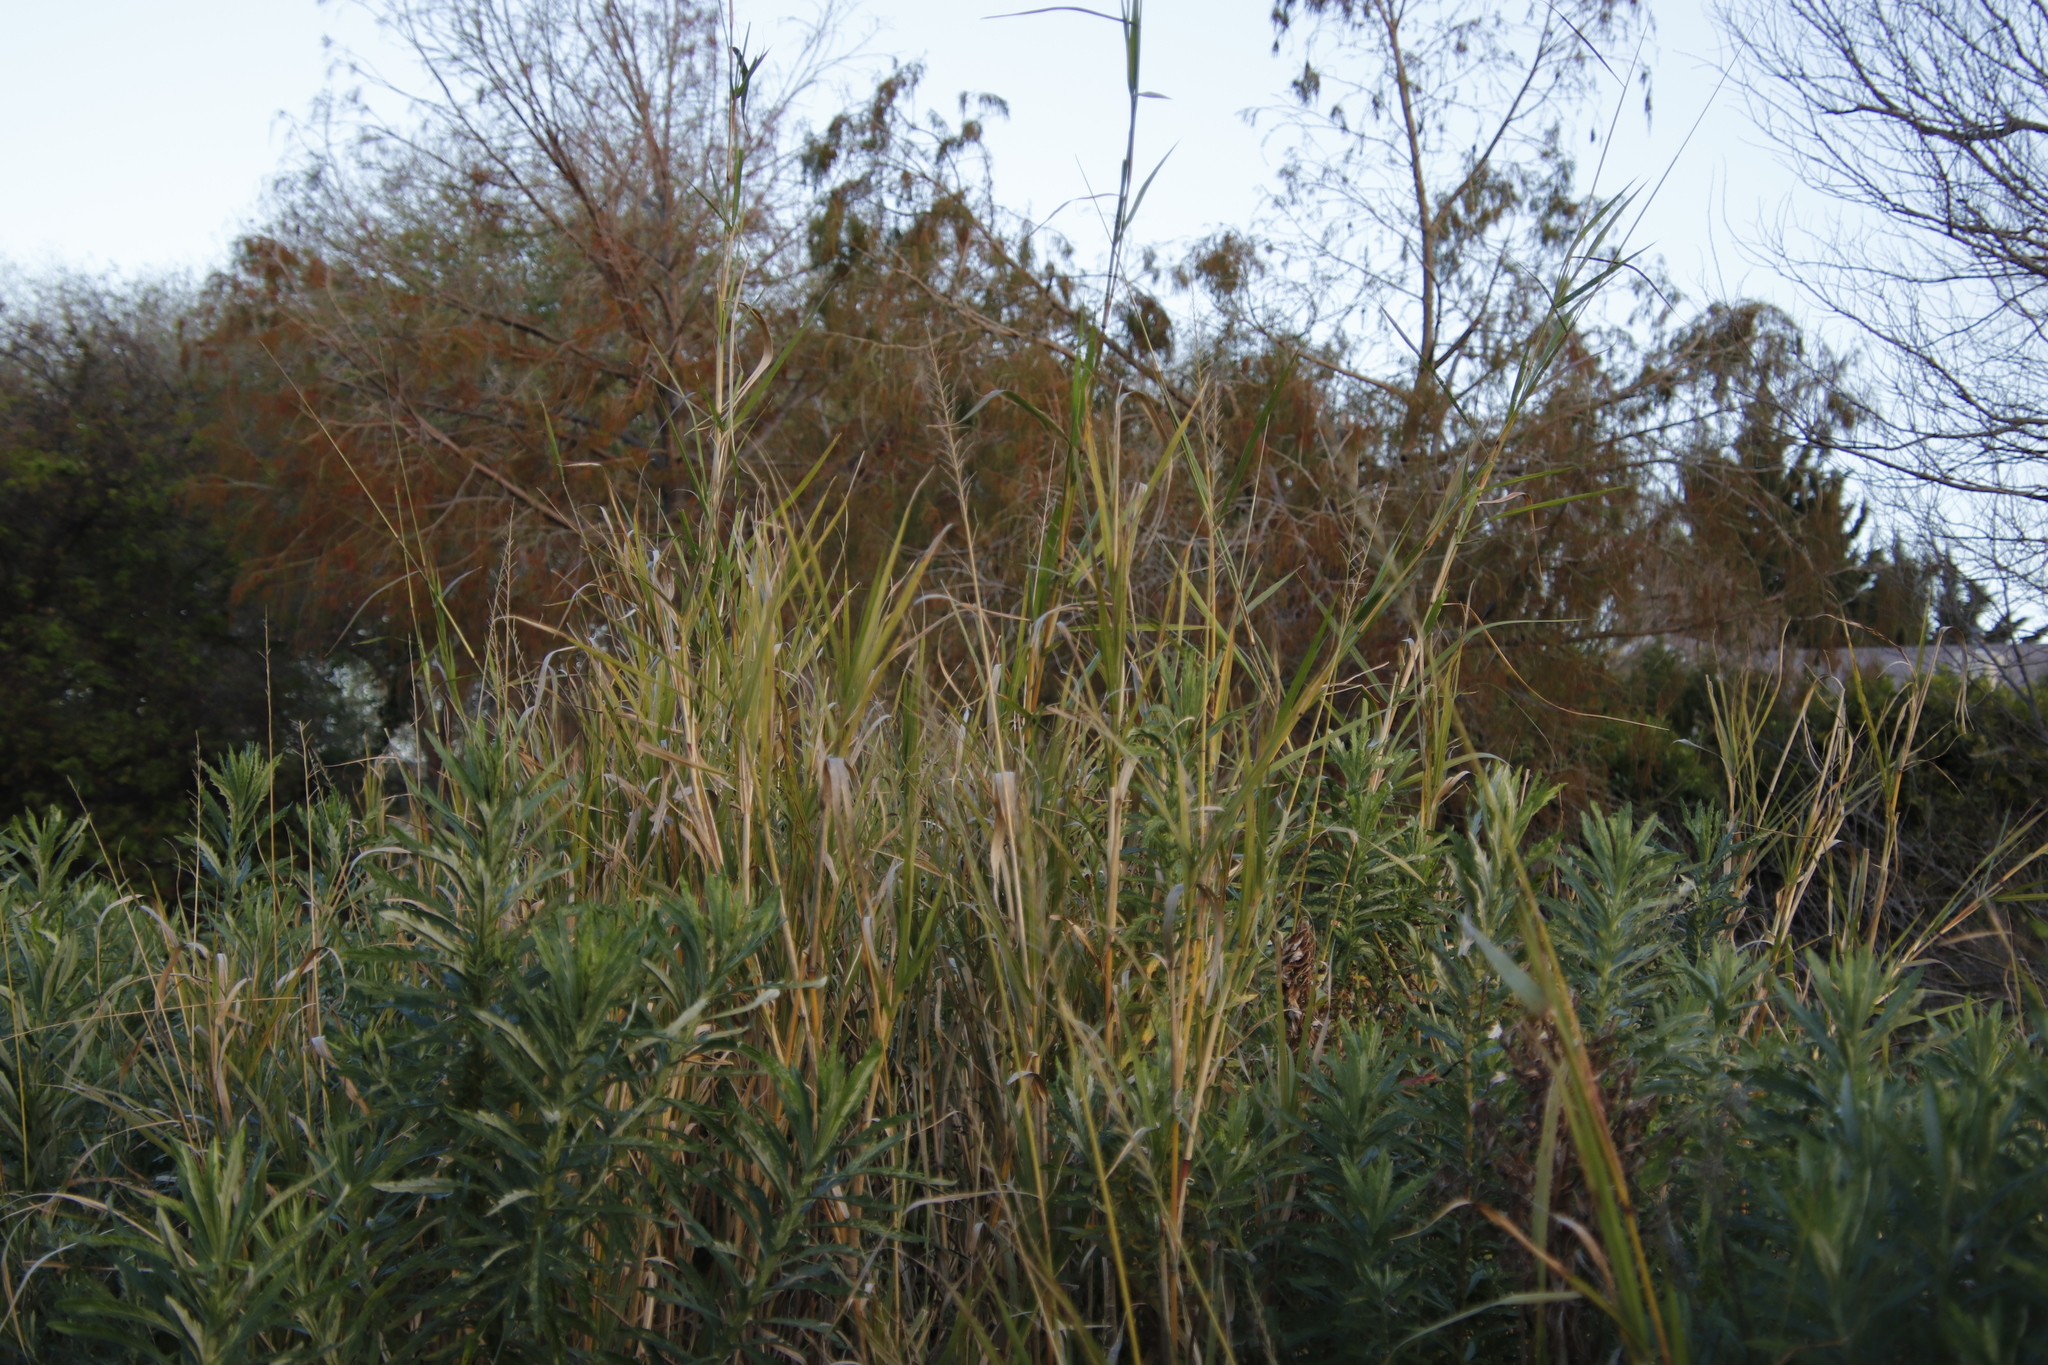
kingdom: Plantae
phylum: Tracheophyta
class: Liliopsida
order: Poales
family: Poaceae
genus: Echinochloa
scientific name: Echinochloa pyramidalis
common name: Antelope grass
